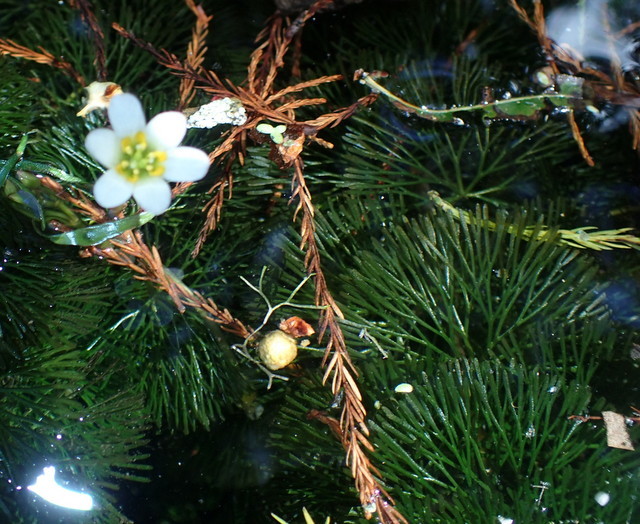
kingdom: Plantae
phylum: Tracheophyta
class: Magnoliopsida
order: Nymphaeales
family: Cabombaceae
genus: Cabomba
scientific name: Cabomba caroliniana
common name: Fanwort
